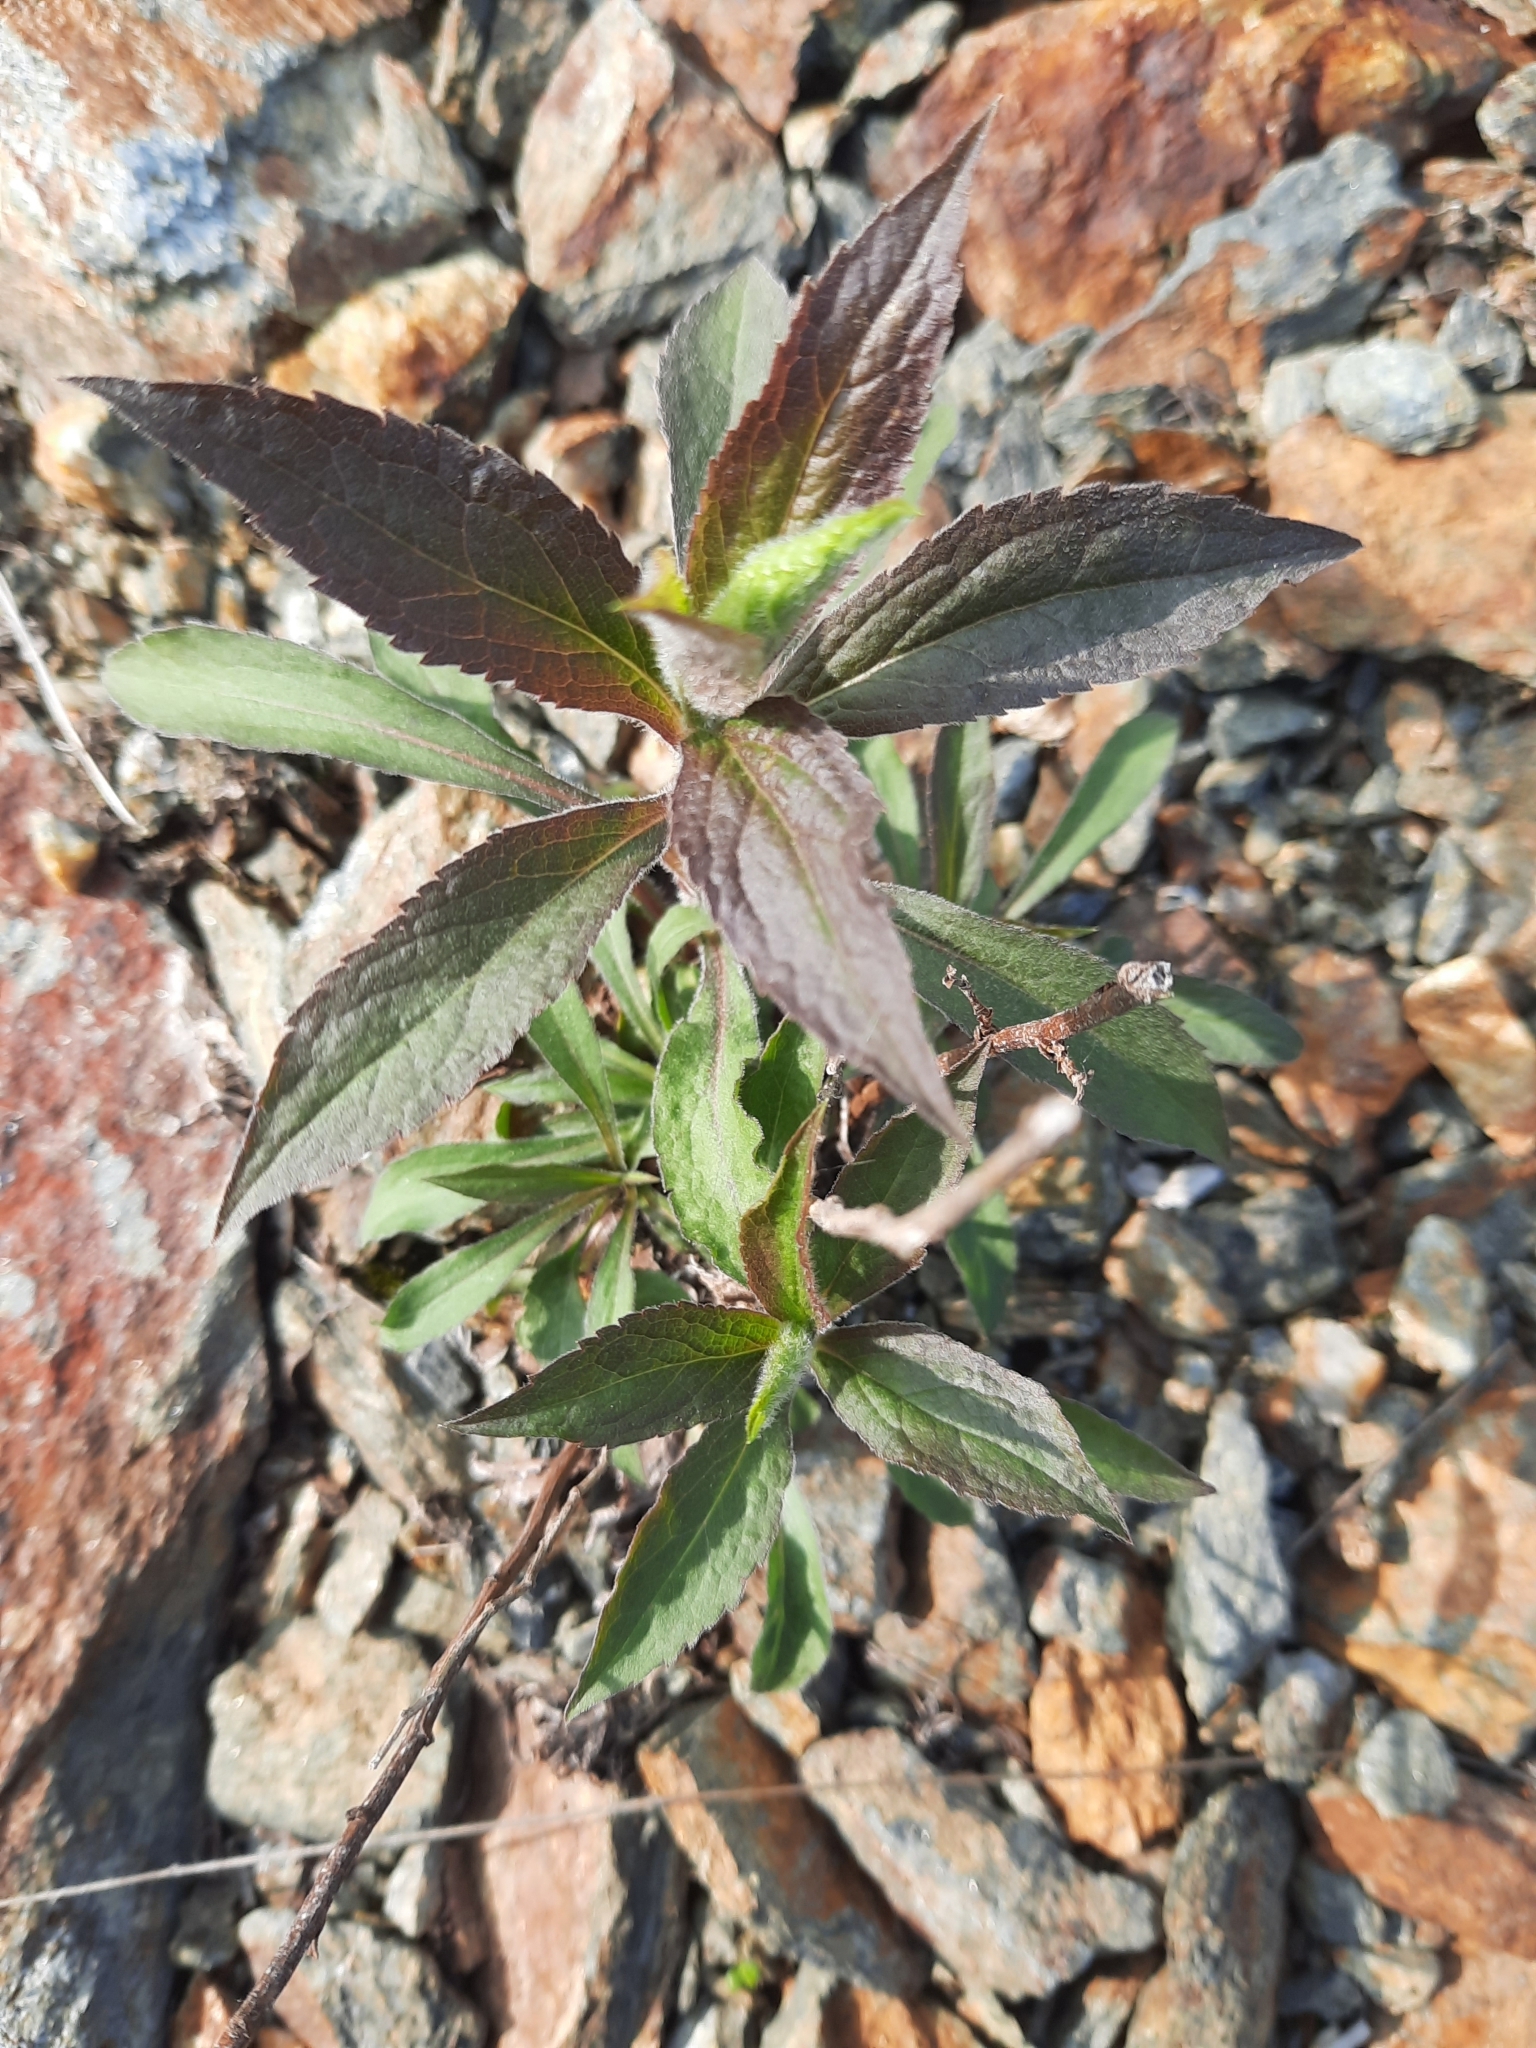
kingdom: Plantae
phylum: Tracheophyta
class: Magnoliopsida
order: Asterales
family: Asteraceae
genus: Solidago
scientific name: Solidago rugosa
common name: Rough-stemmed goldenrod
